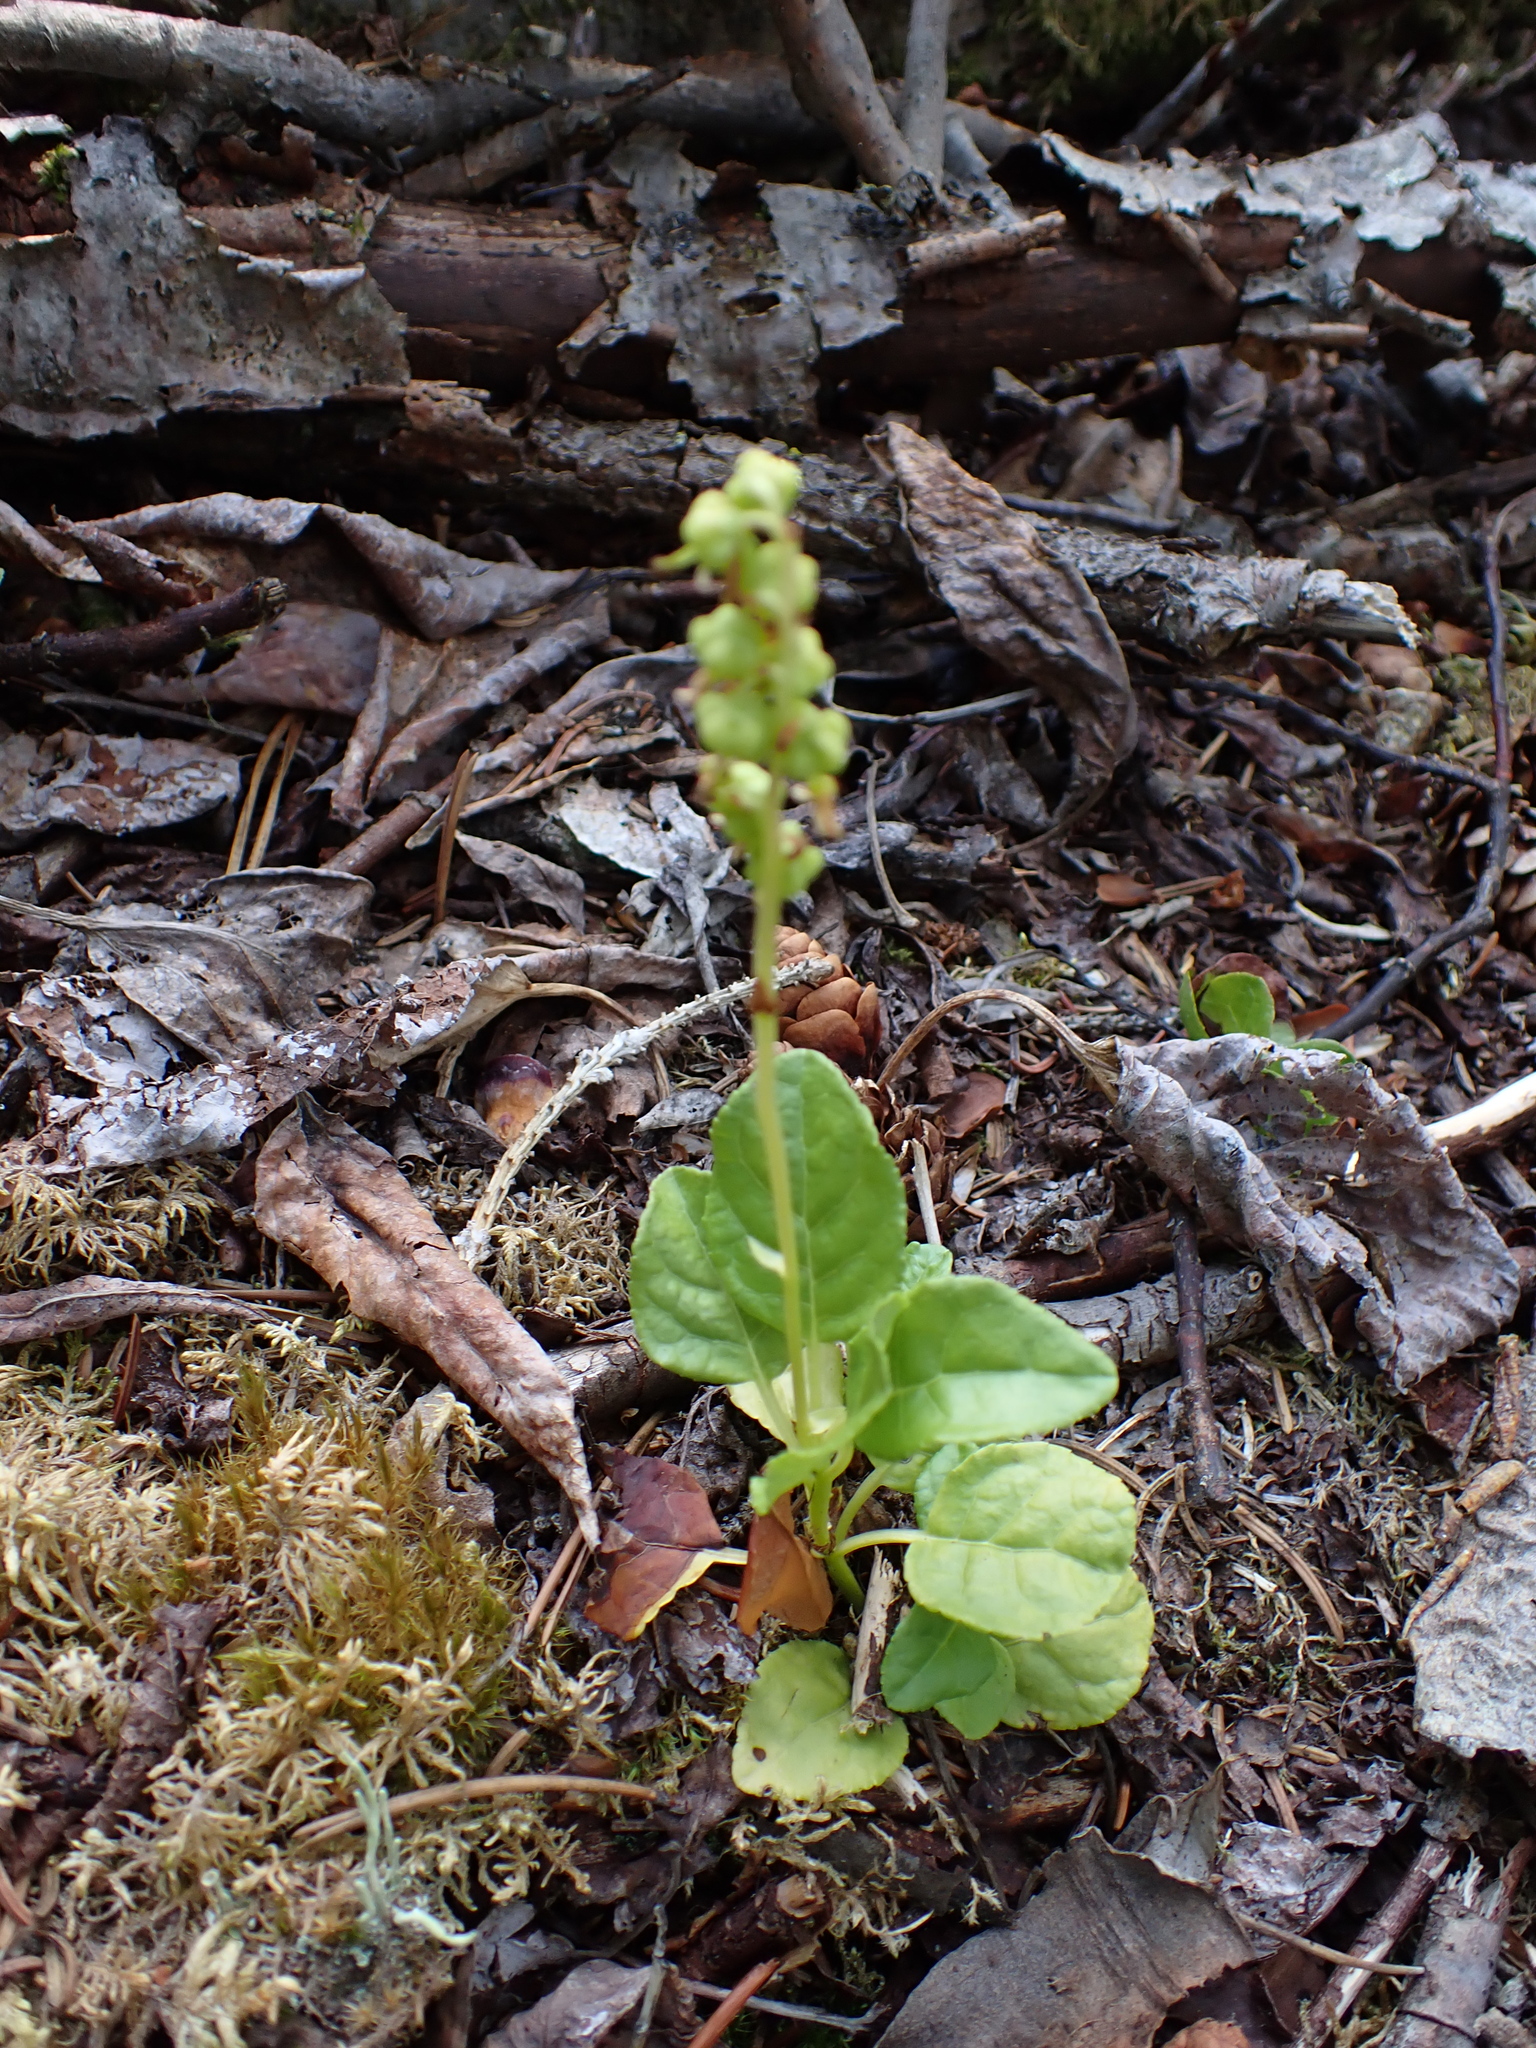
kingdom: Plantae
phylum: Tracheophyta
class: Magnoliopsida
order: Ericales
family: Ericaceae
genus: Orthilia
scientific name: Orthilia secunda
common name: One-sided orthilia
